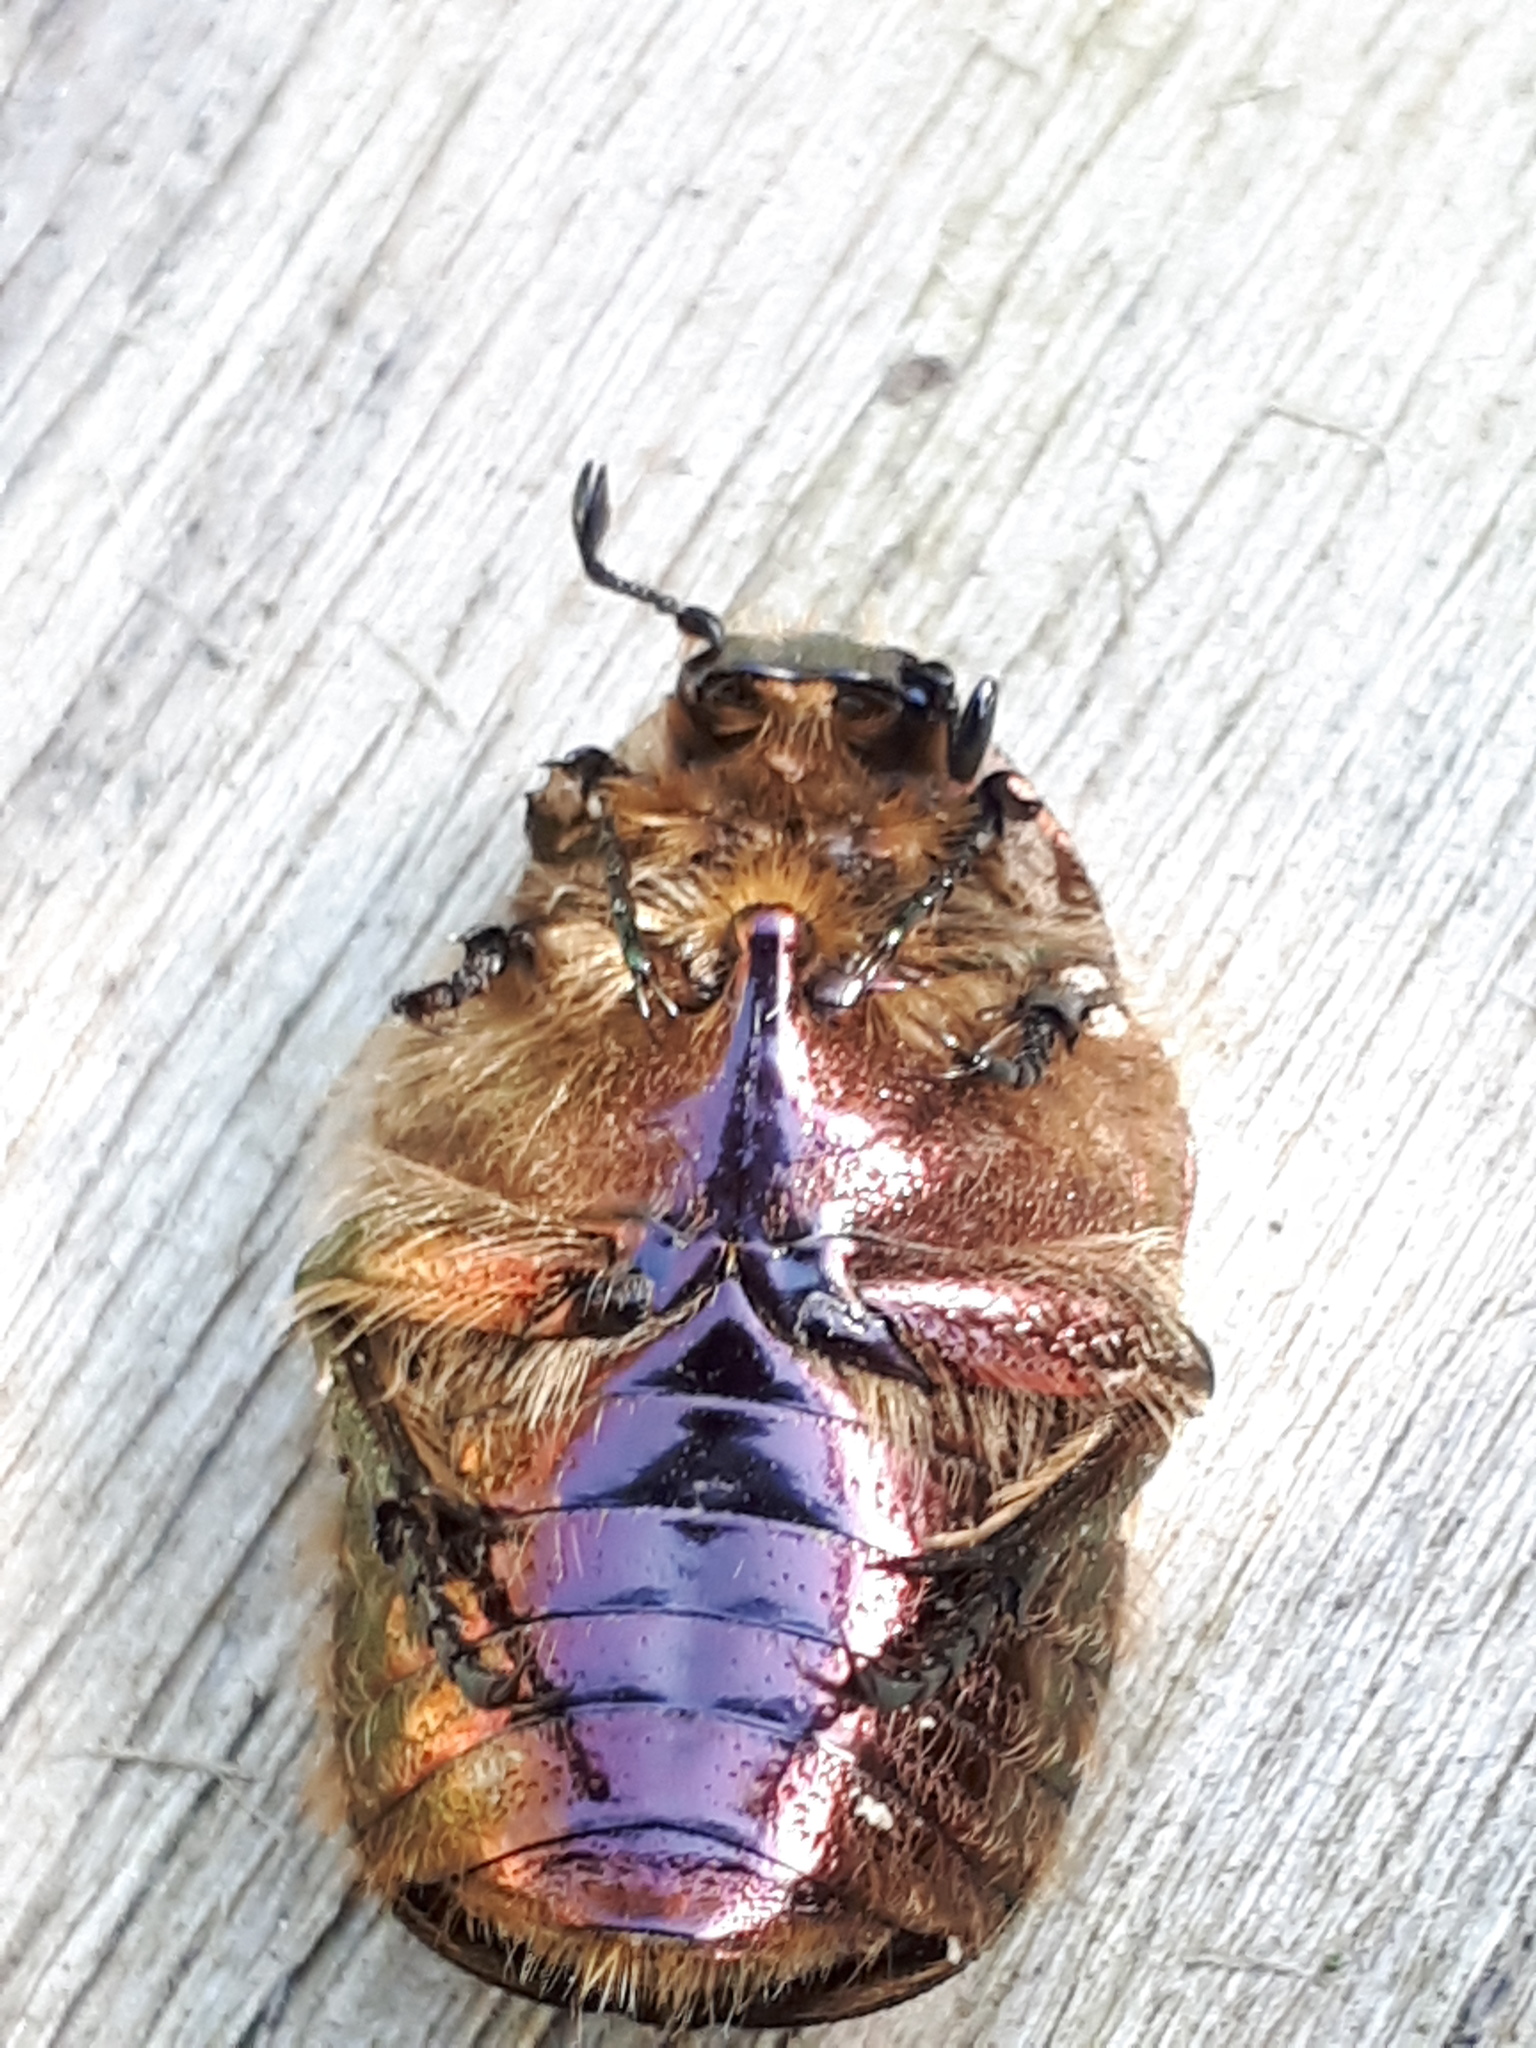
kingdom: Animalia
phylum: Arthropoda
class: Insecta
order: Coleoptera
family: Scarabaeidae
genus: Cetonia
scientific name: Cetonia aurata
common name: Rose chafer
